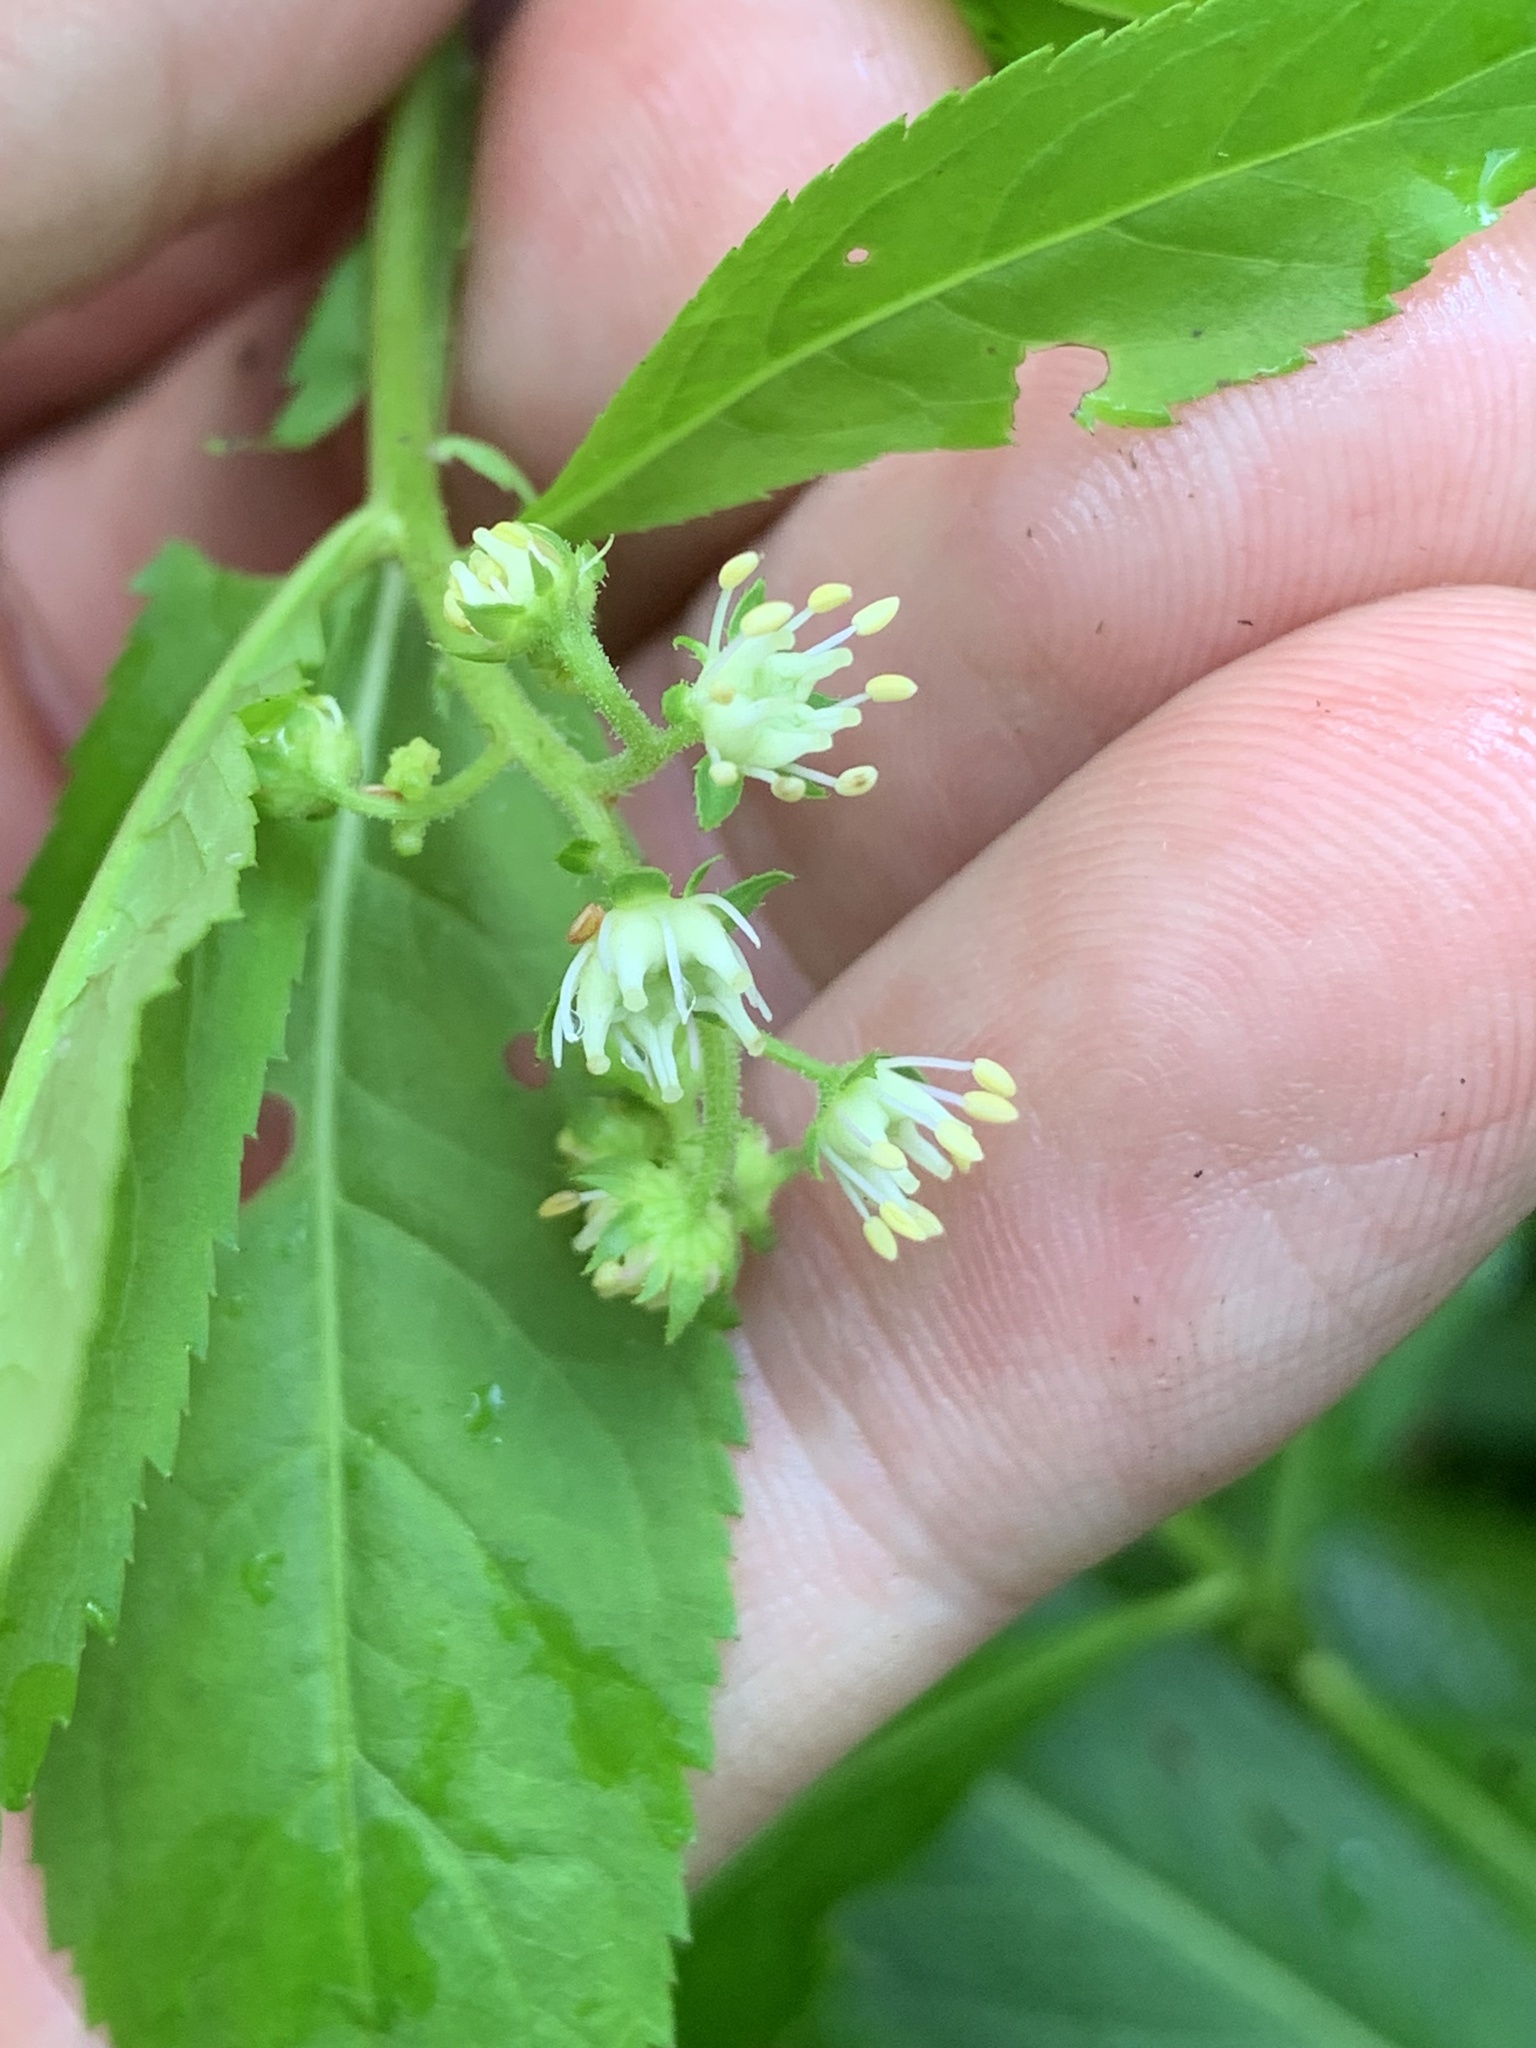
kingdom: Plantae
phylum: Tracheophyta
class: Magnoliopsida
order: Saxifragales
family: Penthoraceae
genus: Penthorum
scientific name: Penthorum sedoides
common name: Ditch stonecrop
